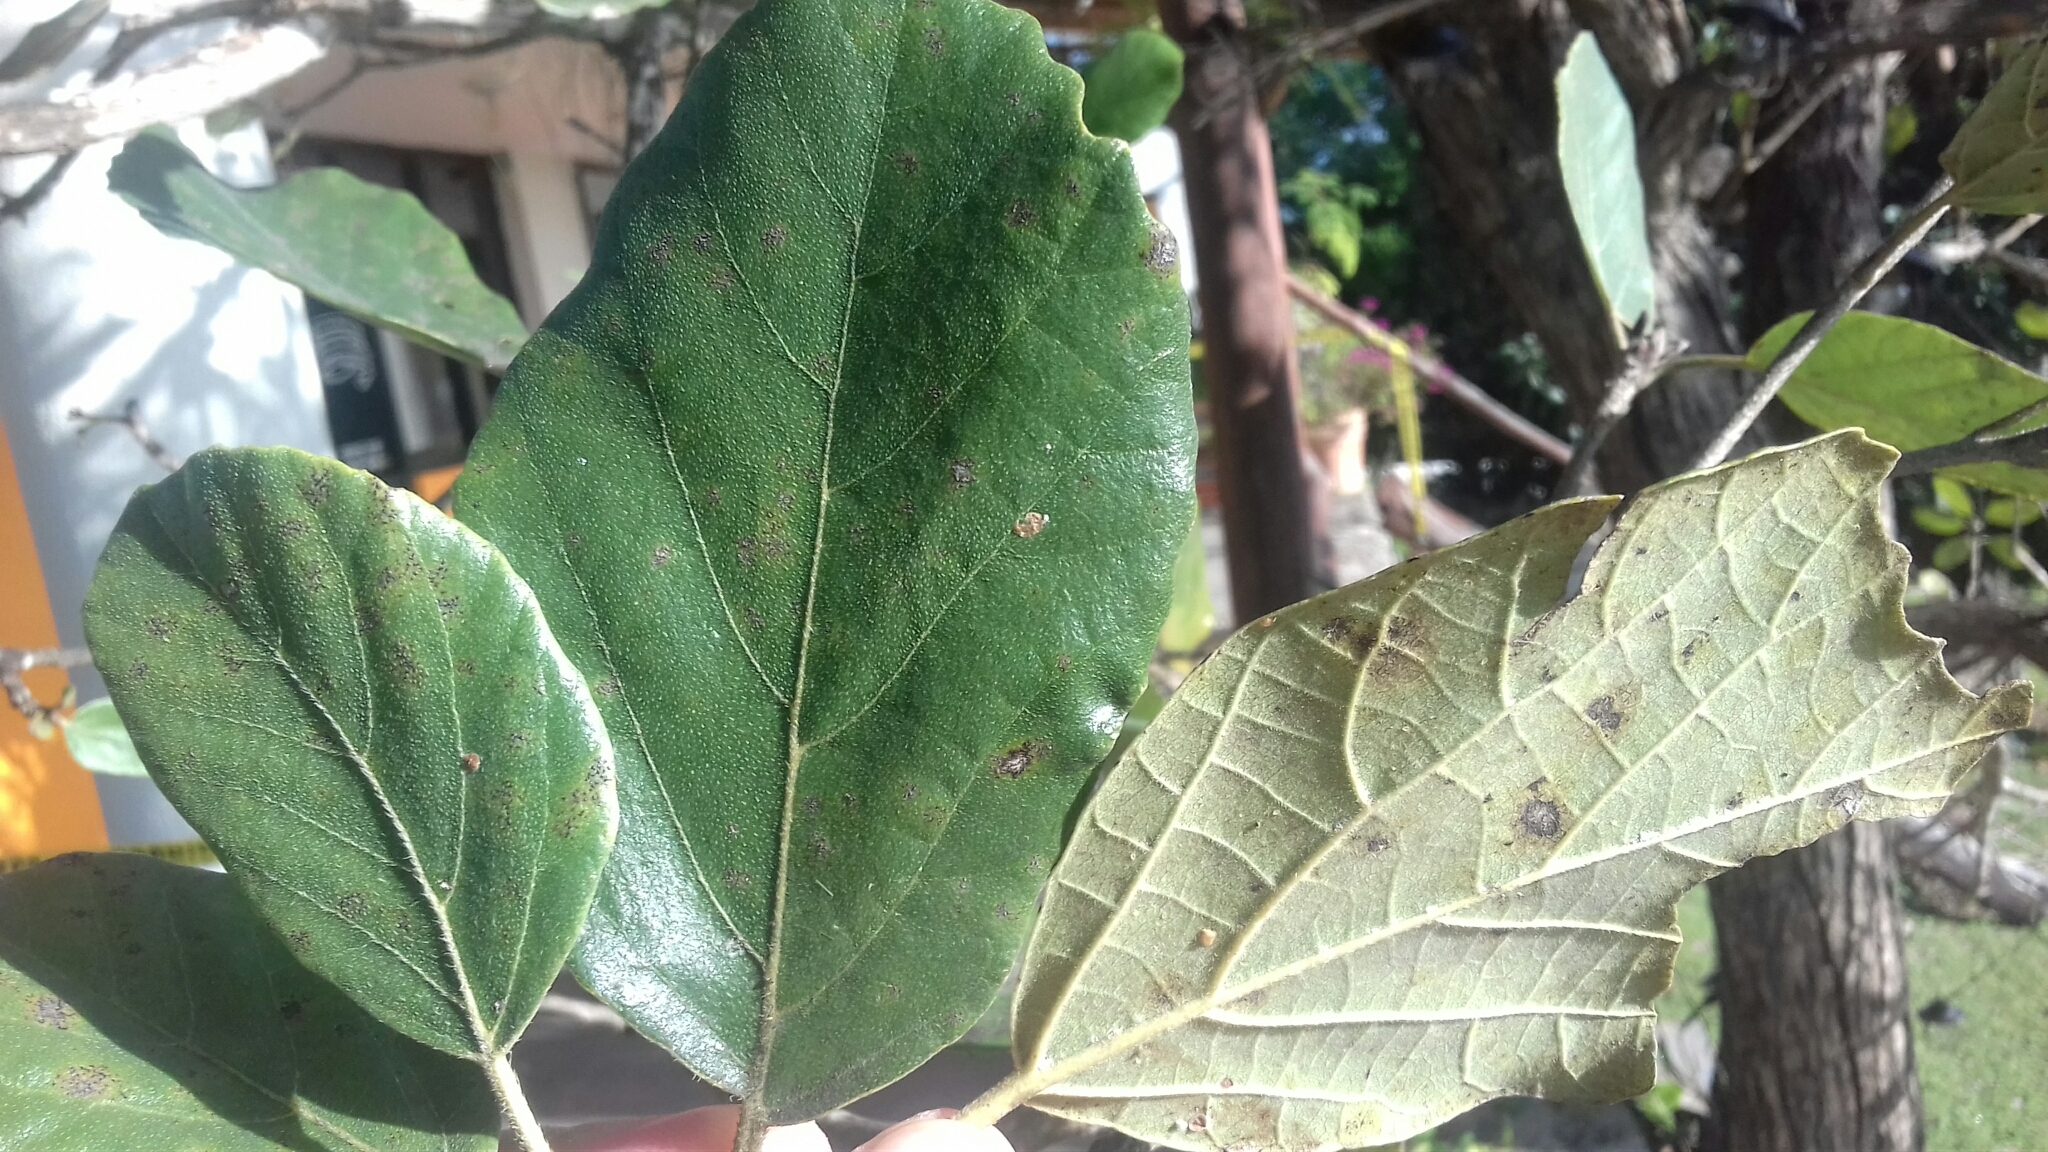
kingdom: Plantae
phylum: Tracheophyta
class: Magnoliopsida
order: Boraginales
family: Cordiaceae
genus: Cordia
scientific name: Cordia dodecandra
